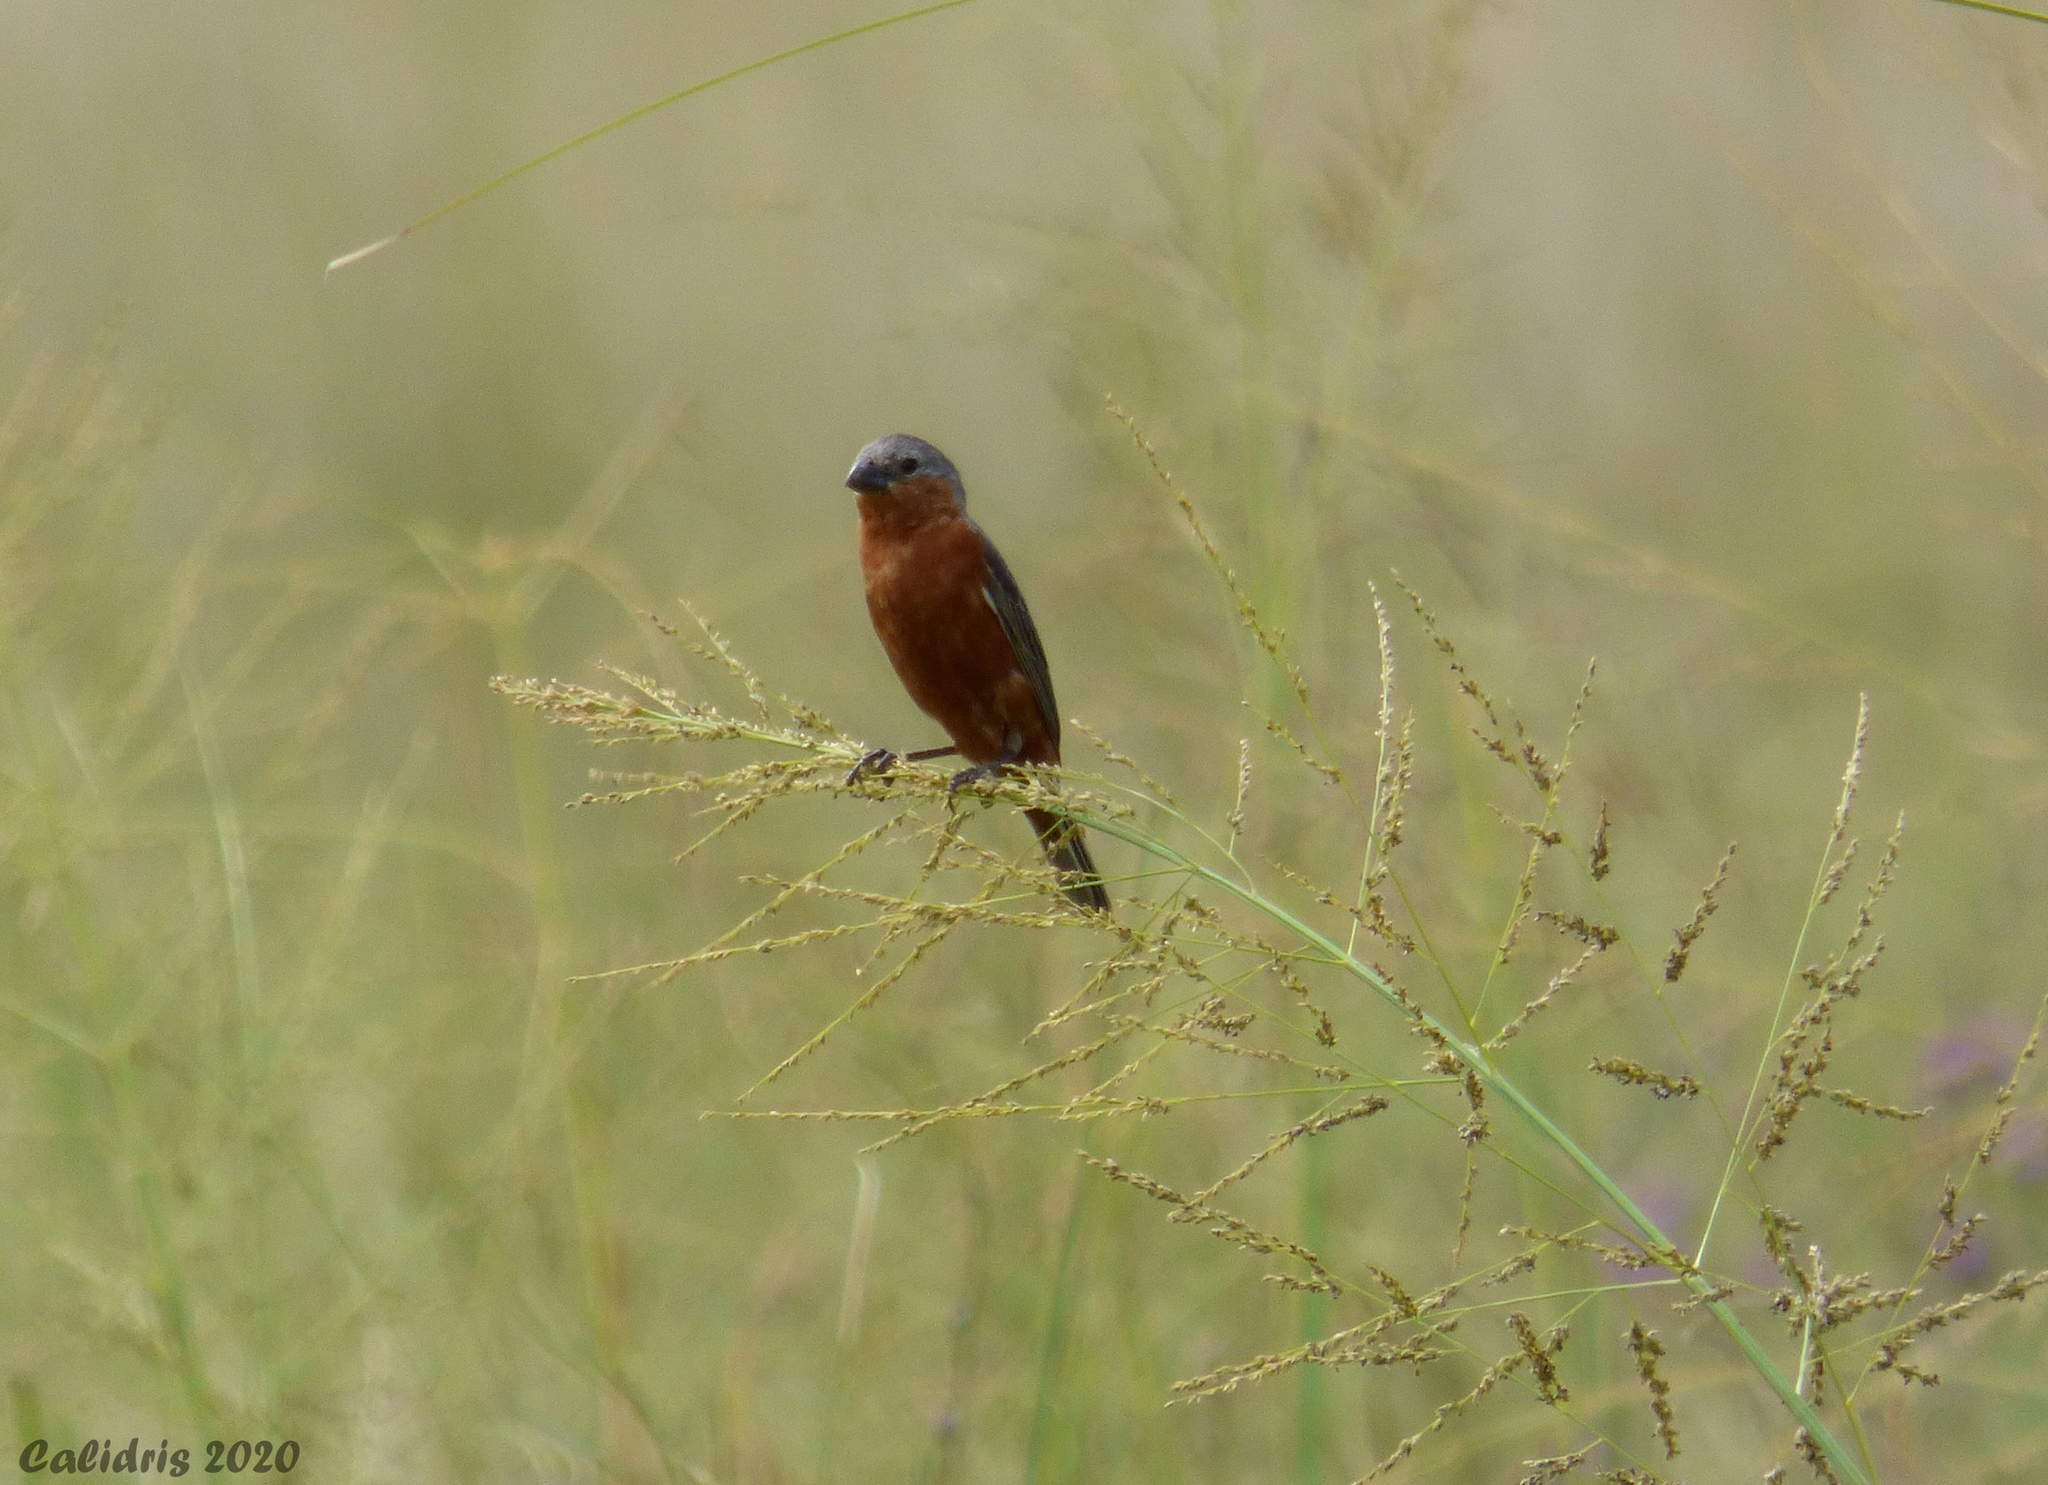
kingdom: Animalia
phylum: Chordata
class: Aves
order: Passeriformes
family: Thraupidae
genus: Sporophila
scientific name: Sporophila hypochroma
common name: Rufous-rumped seedeater
